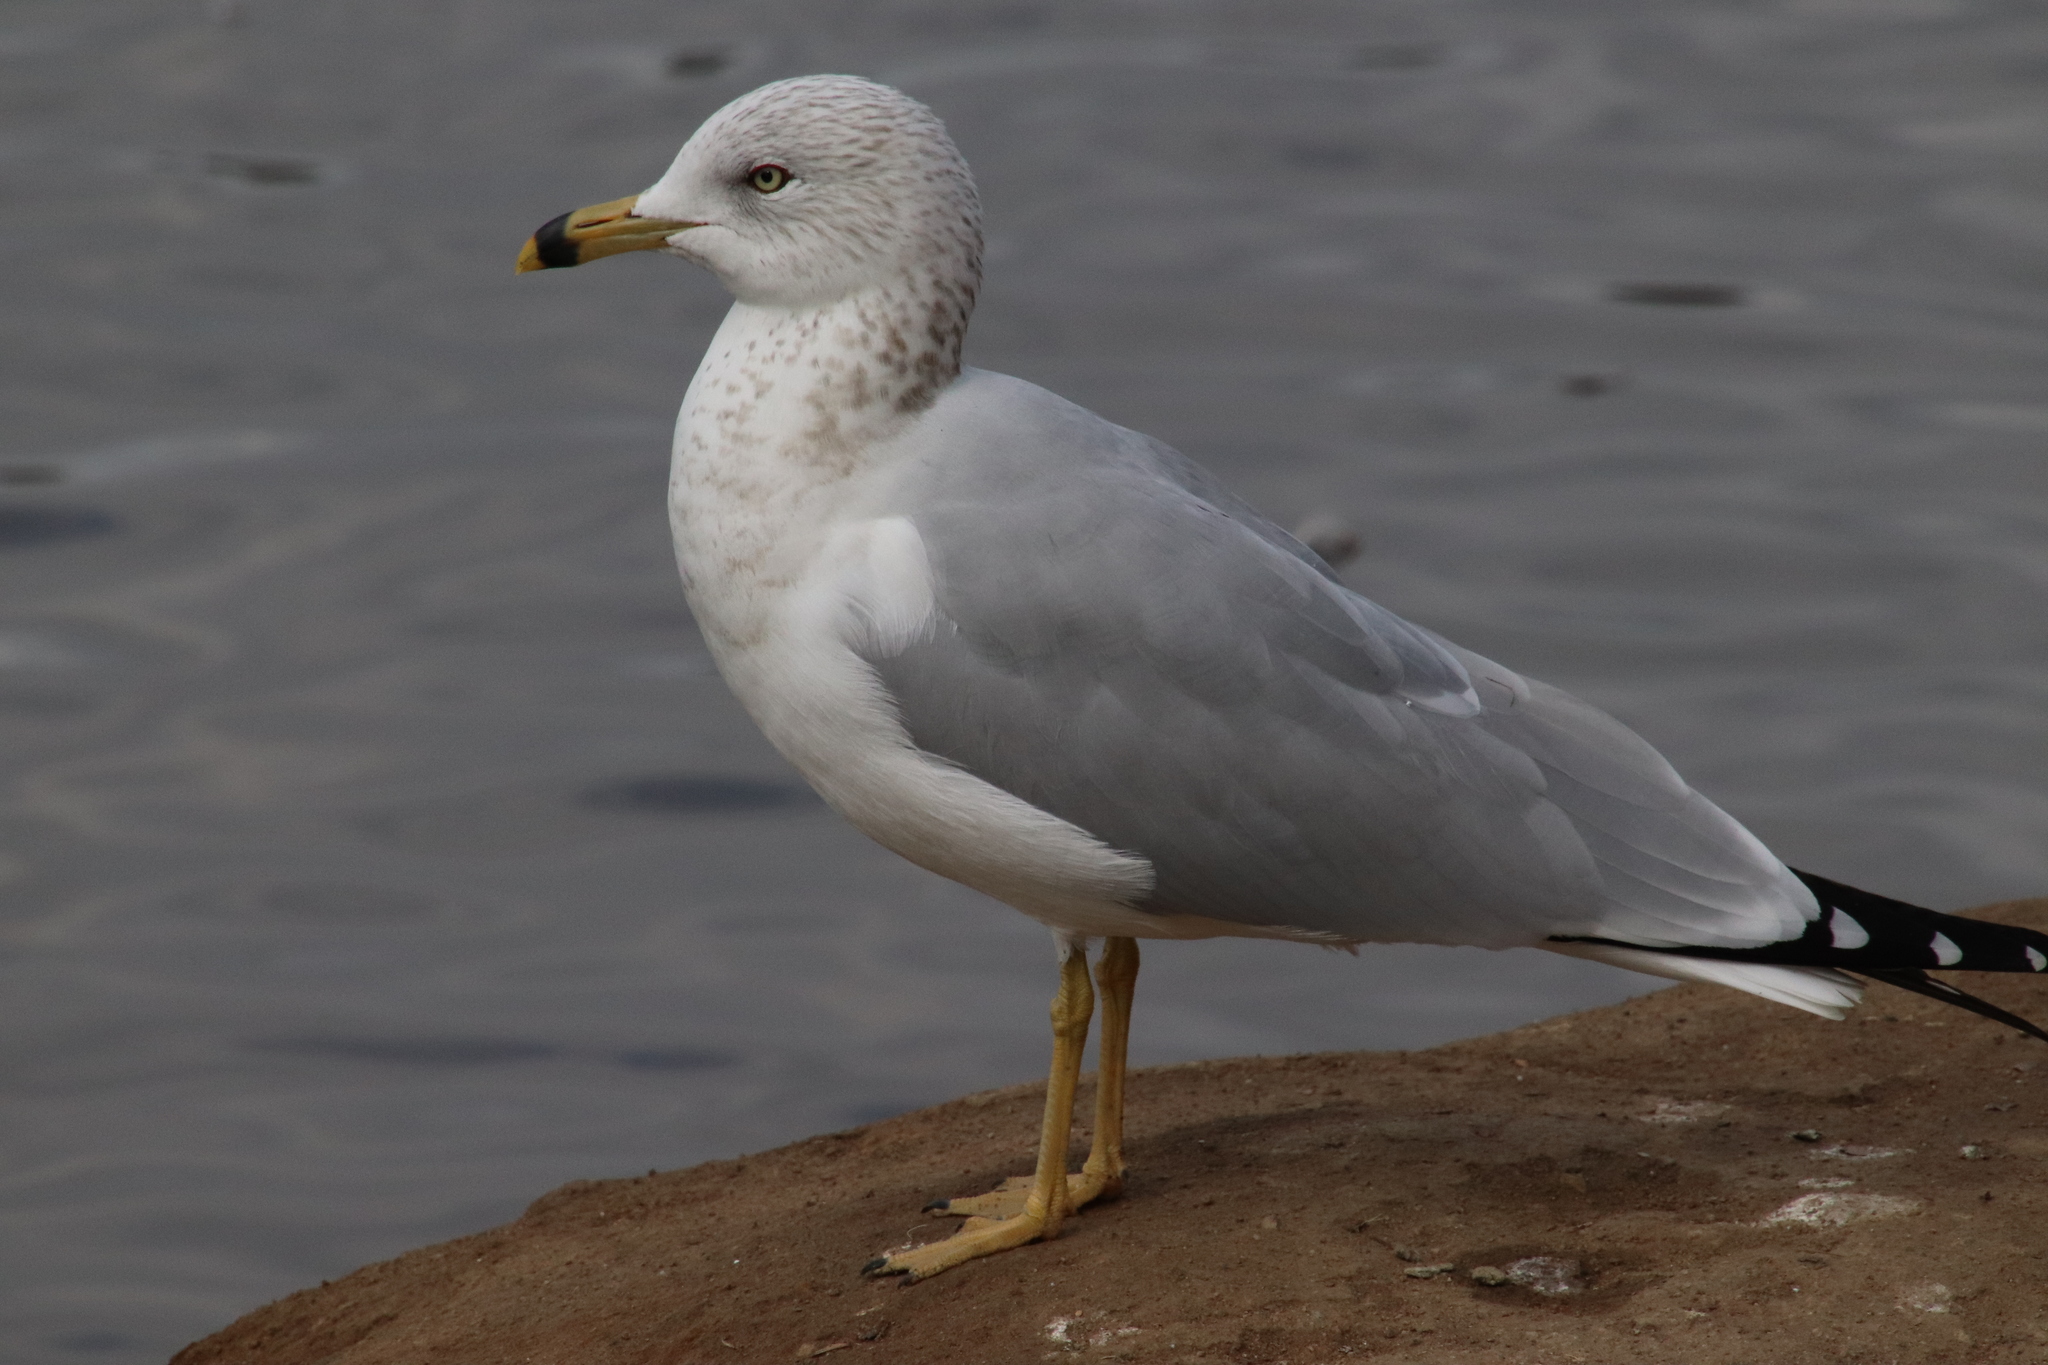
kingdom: Animalia
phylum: Chordata
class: Aves
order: Charadriiformes
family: Laridae
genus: Larus
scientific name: Larus delawarensis
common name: Ring-billed gull
